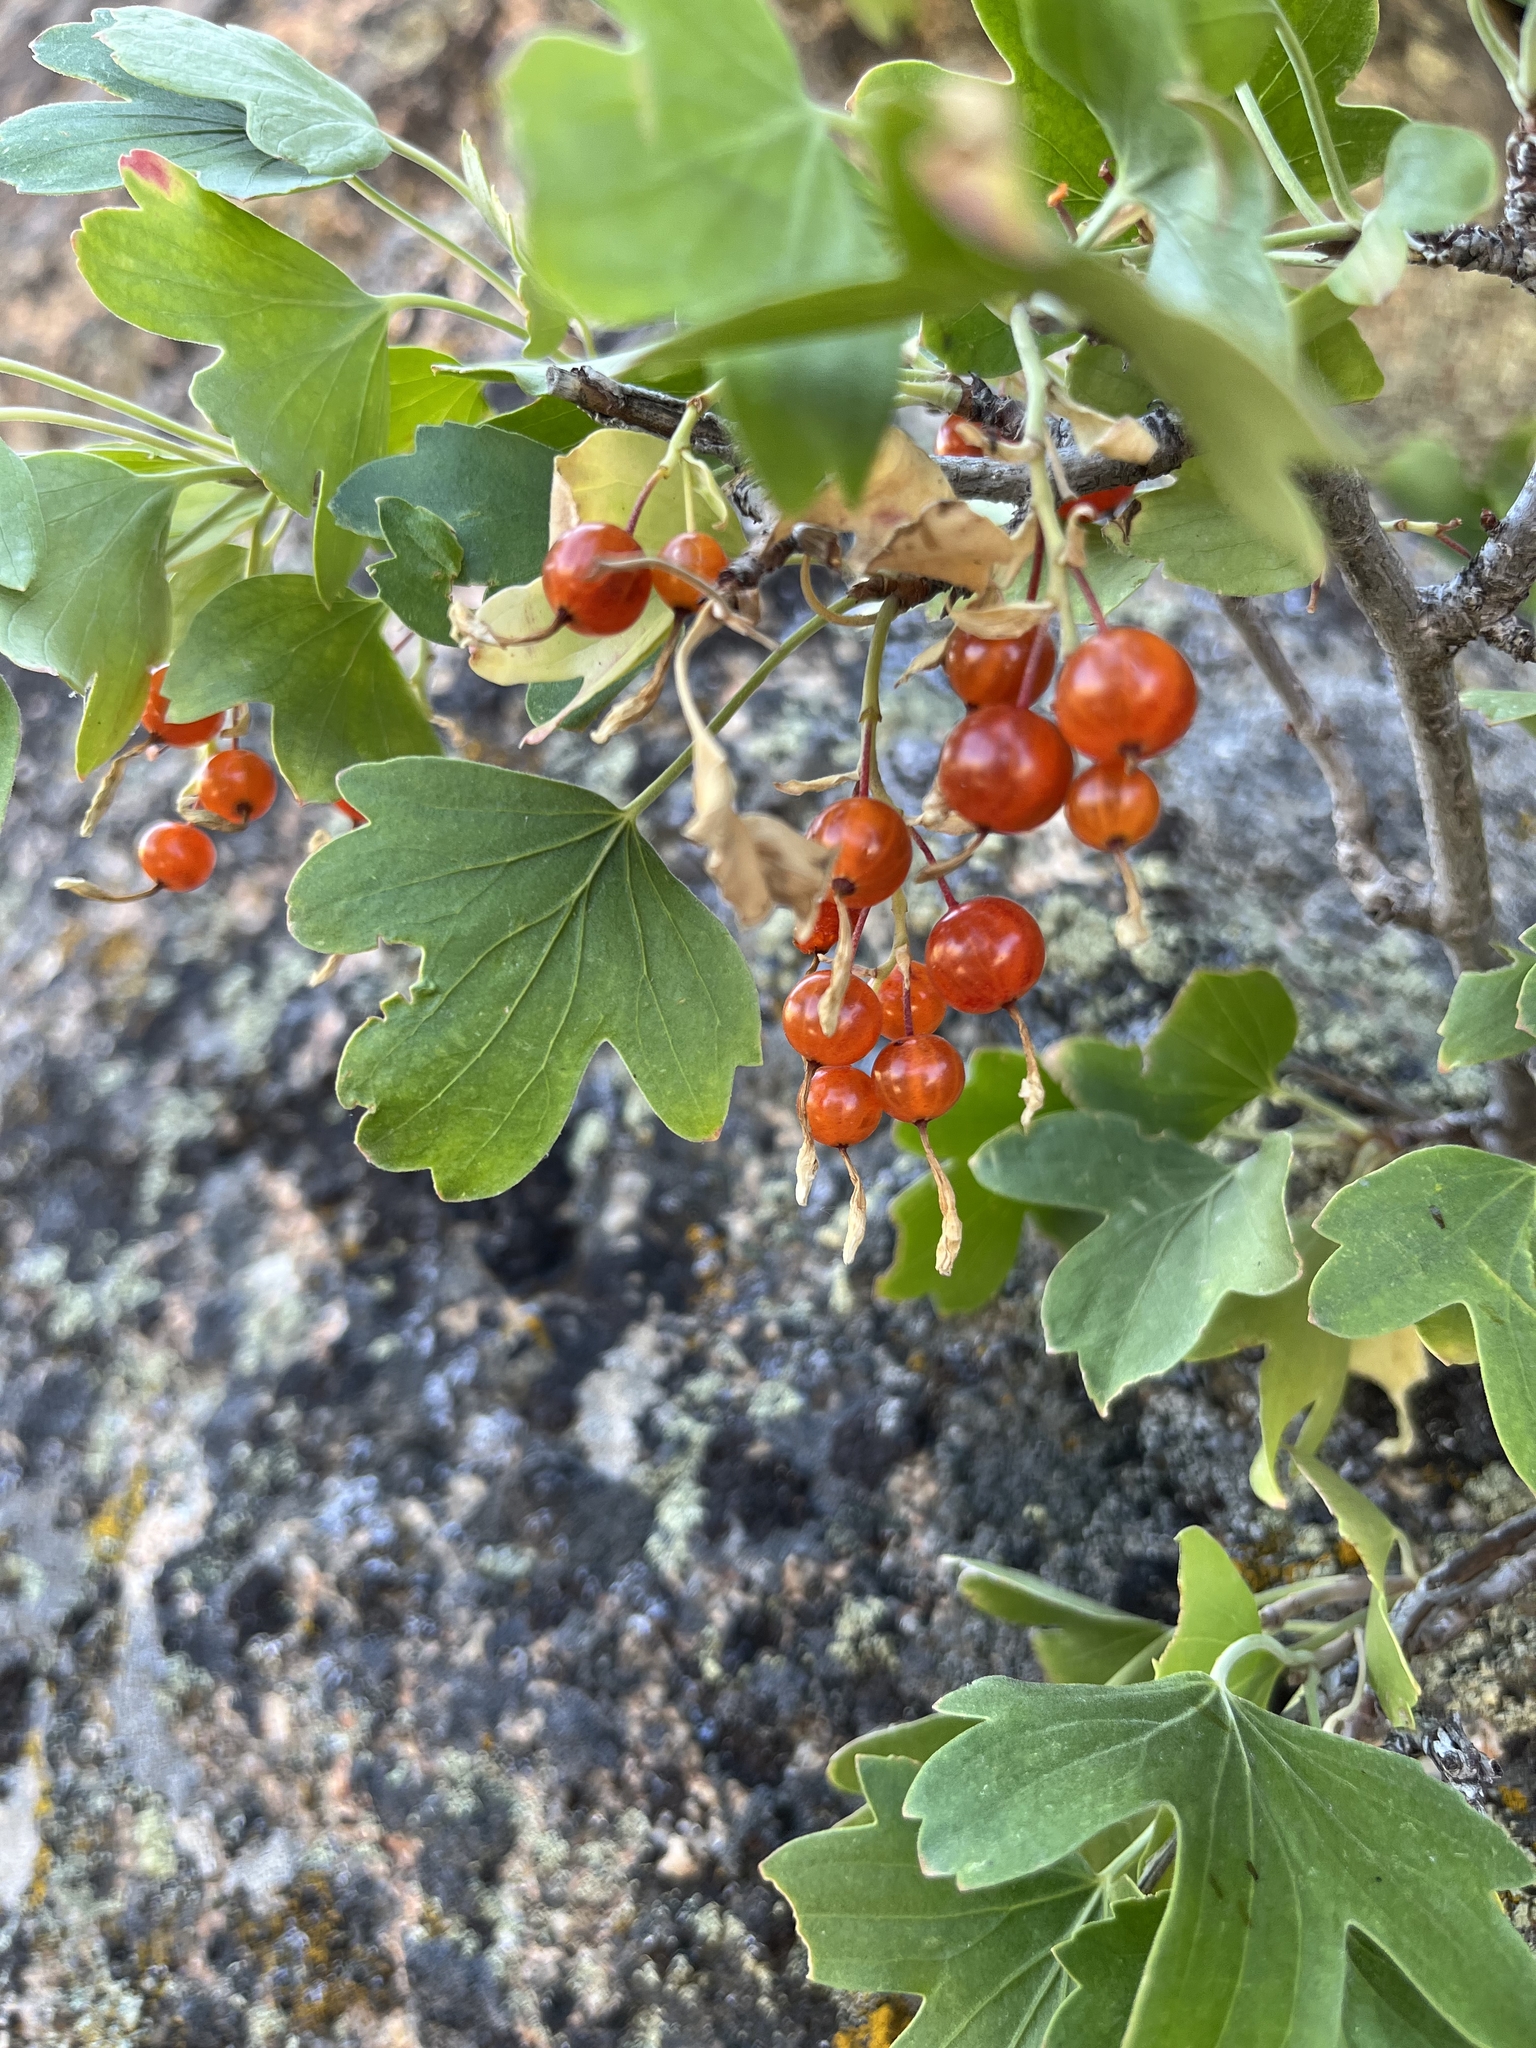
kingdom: Plantae
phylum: Tracheophyta
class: Magnoliopsida
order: Saxifragales
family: Grossulariaceae
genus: Ribes
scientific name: Ribes aureum
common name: Golden currant
